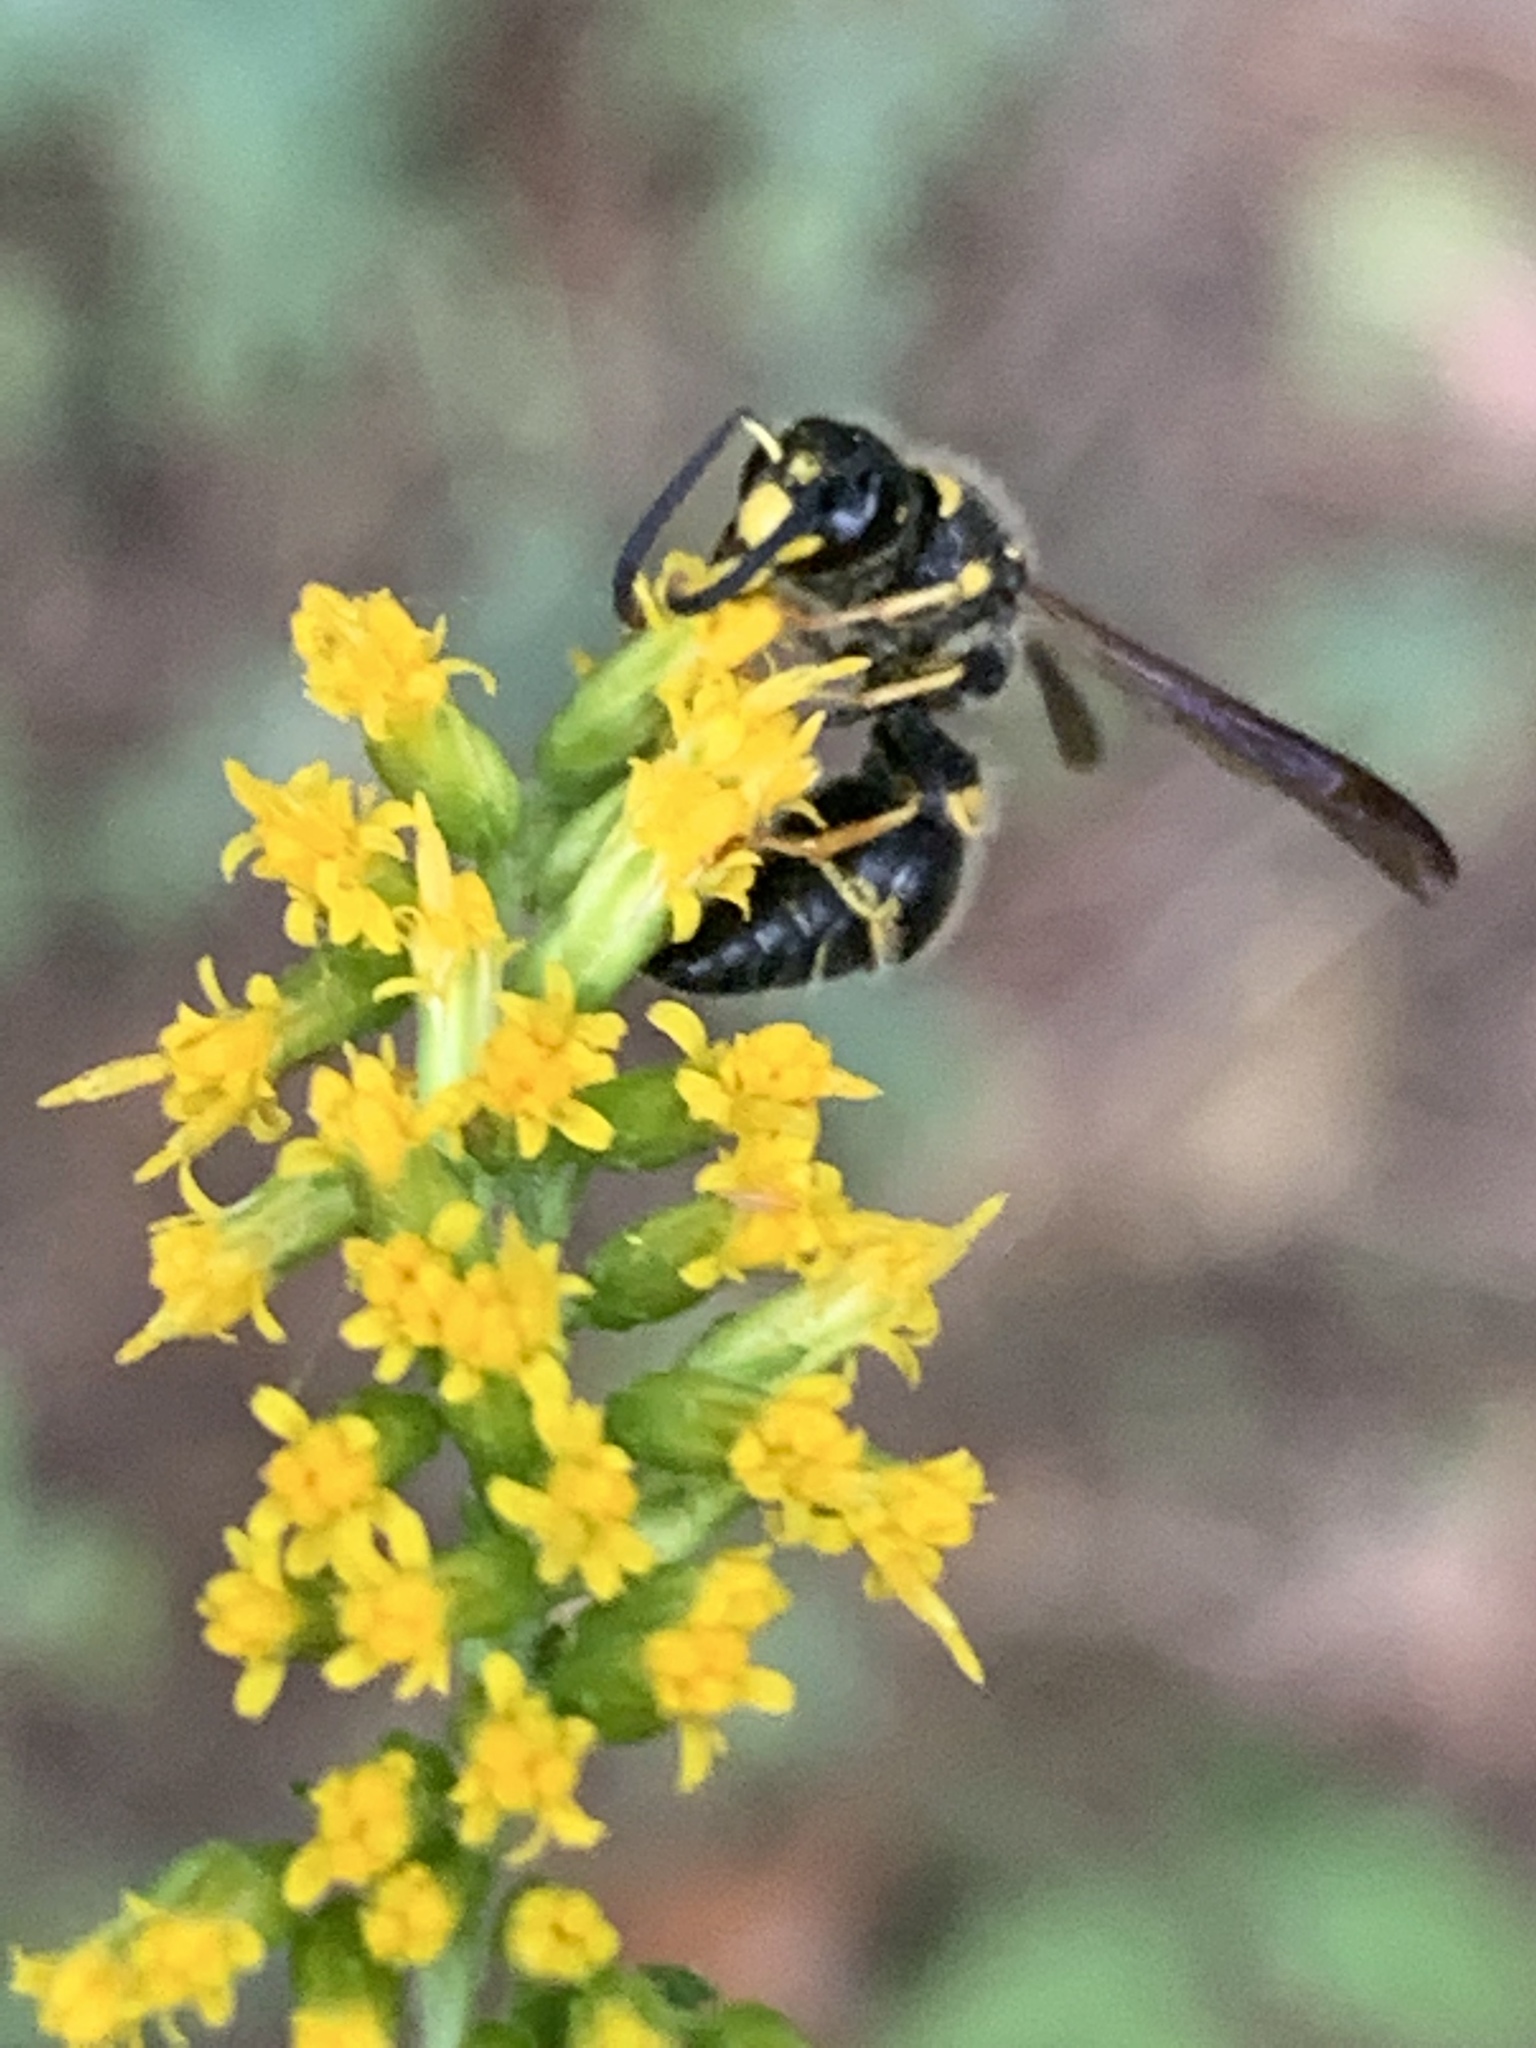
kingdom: Animalia
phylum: Arthropoda
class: Insecta
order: Hymenoptera
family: Vespidae
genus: Ancistrocerus
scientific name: Ancistrocerus campestris
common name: Smiling mason wasp
